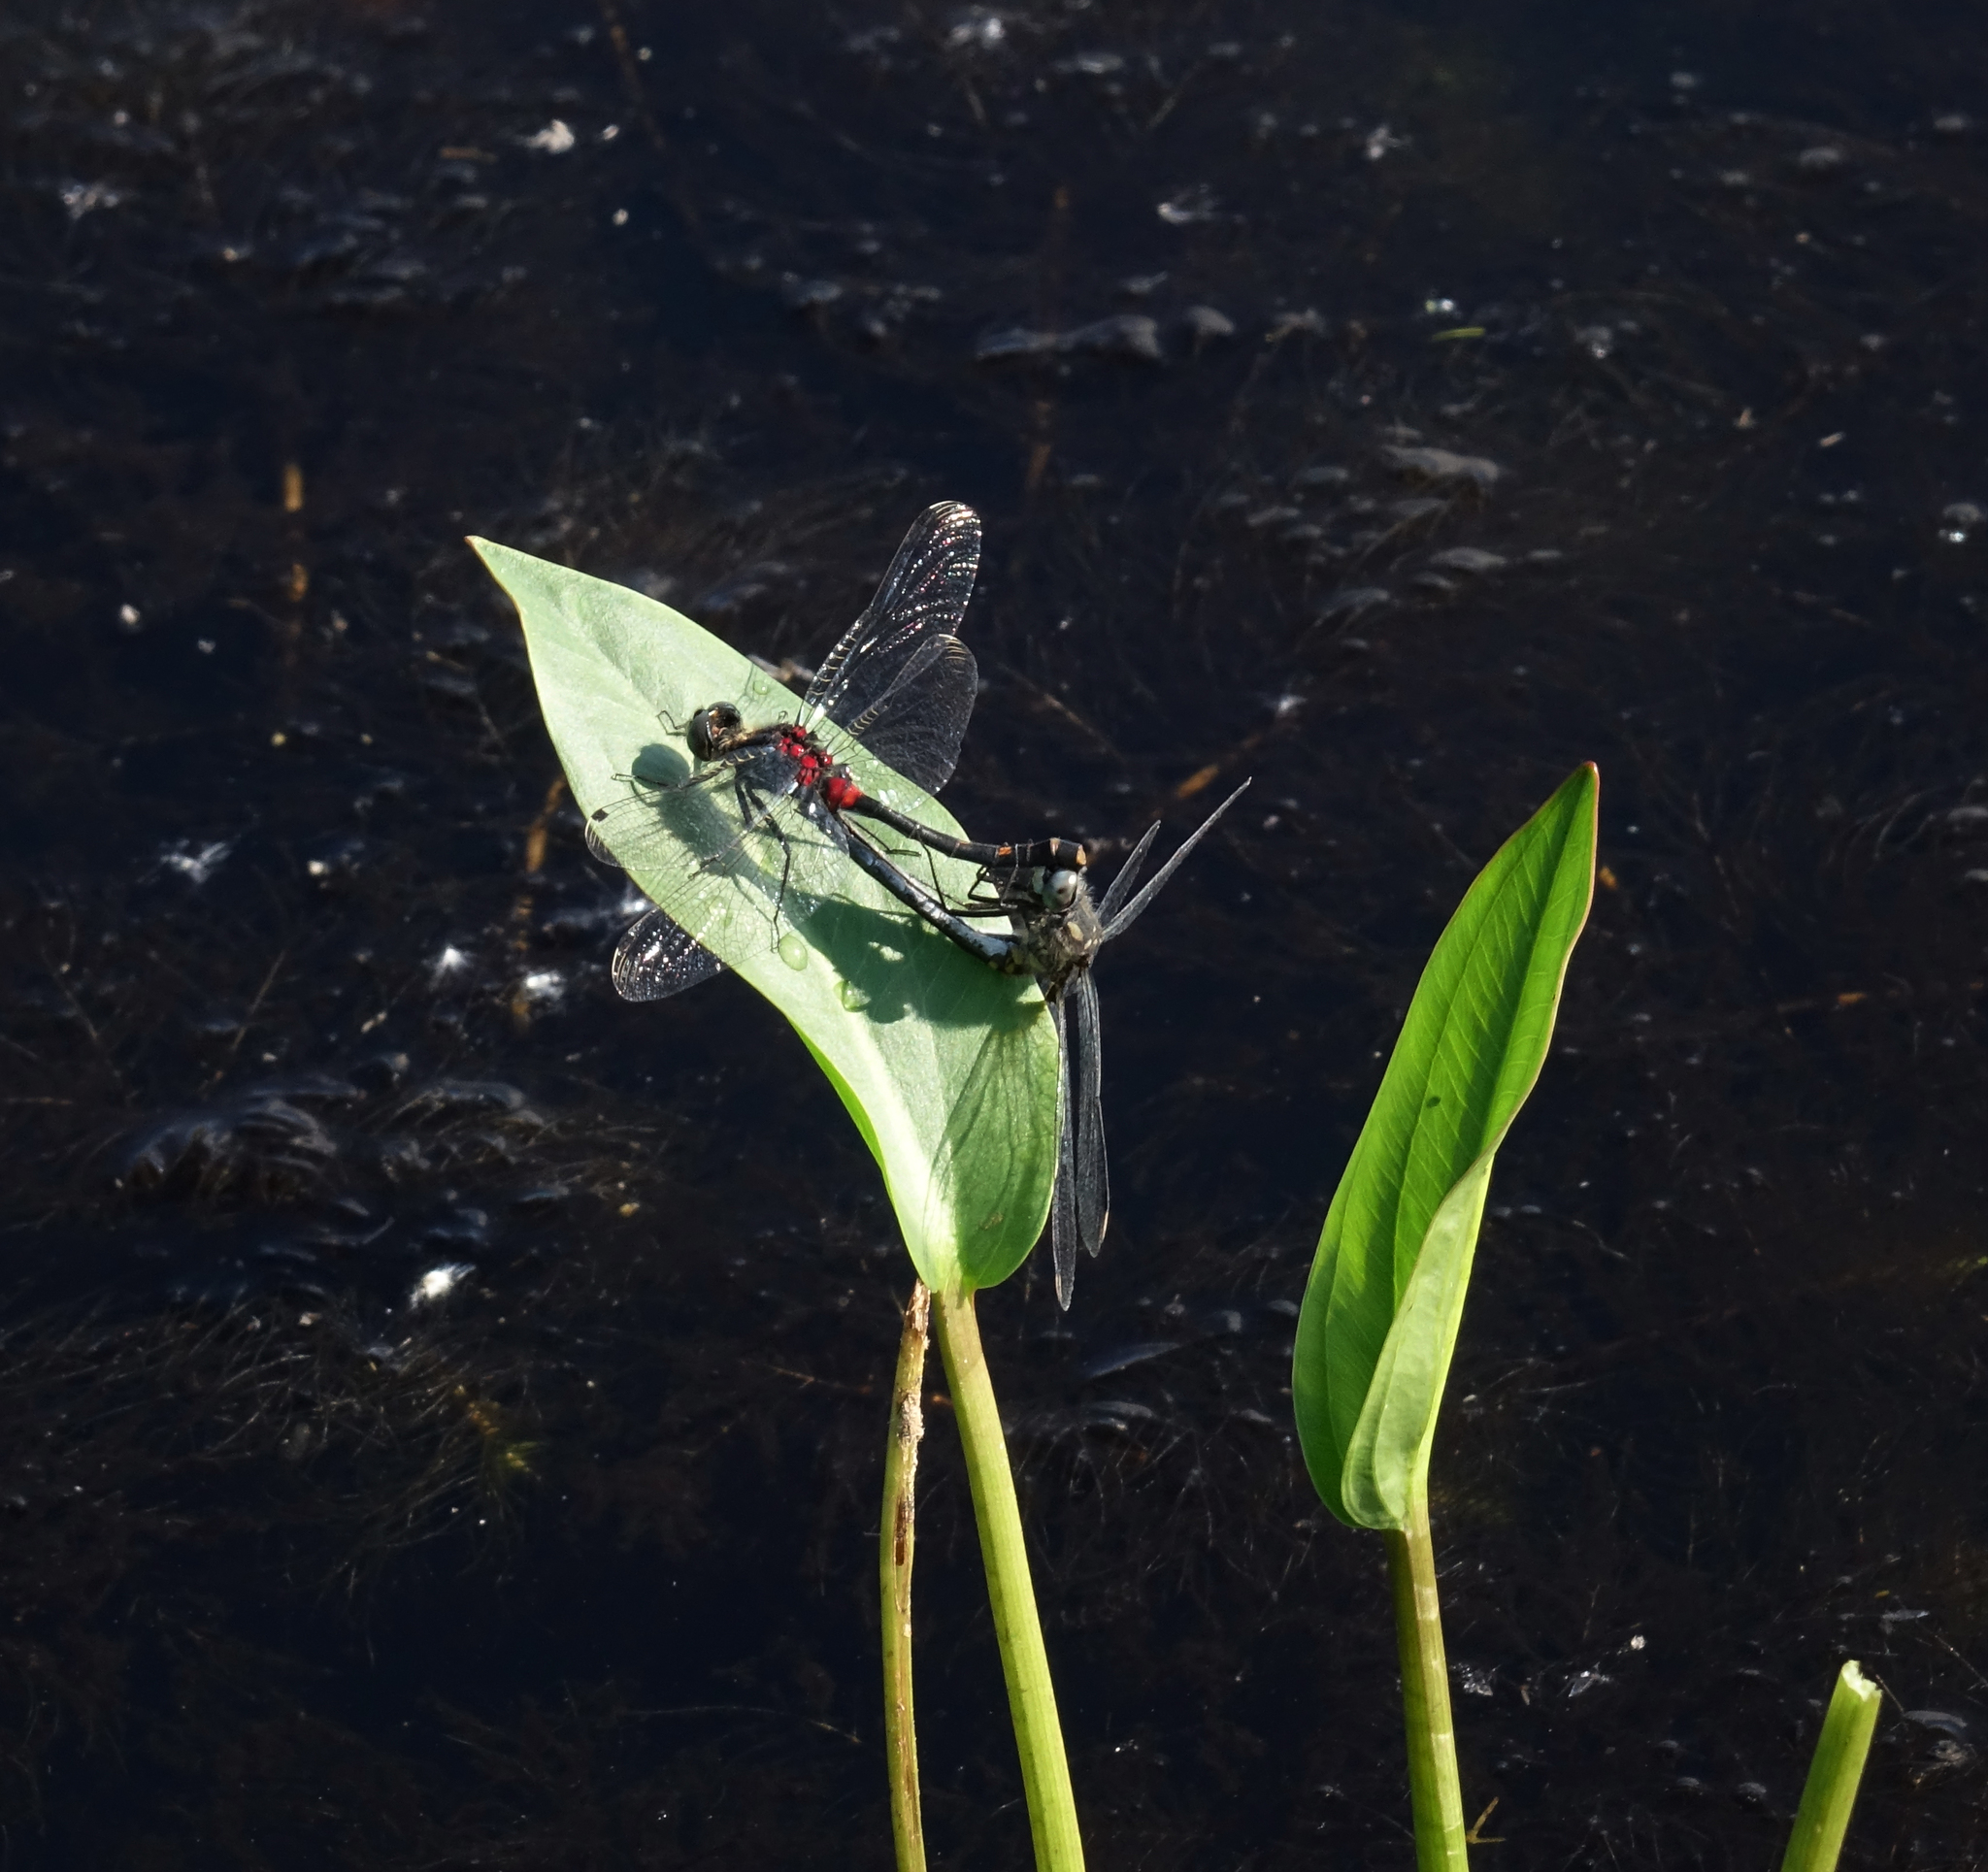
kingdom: Animalia
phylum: Arthropoda
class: Insecta
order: Odonata
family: Libellulidae
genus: Leucorrhinia
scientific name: Leucorrhinia orientalis
